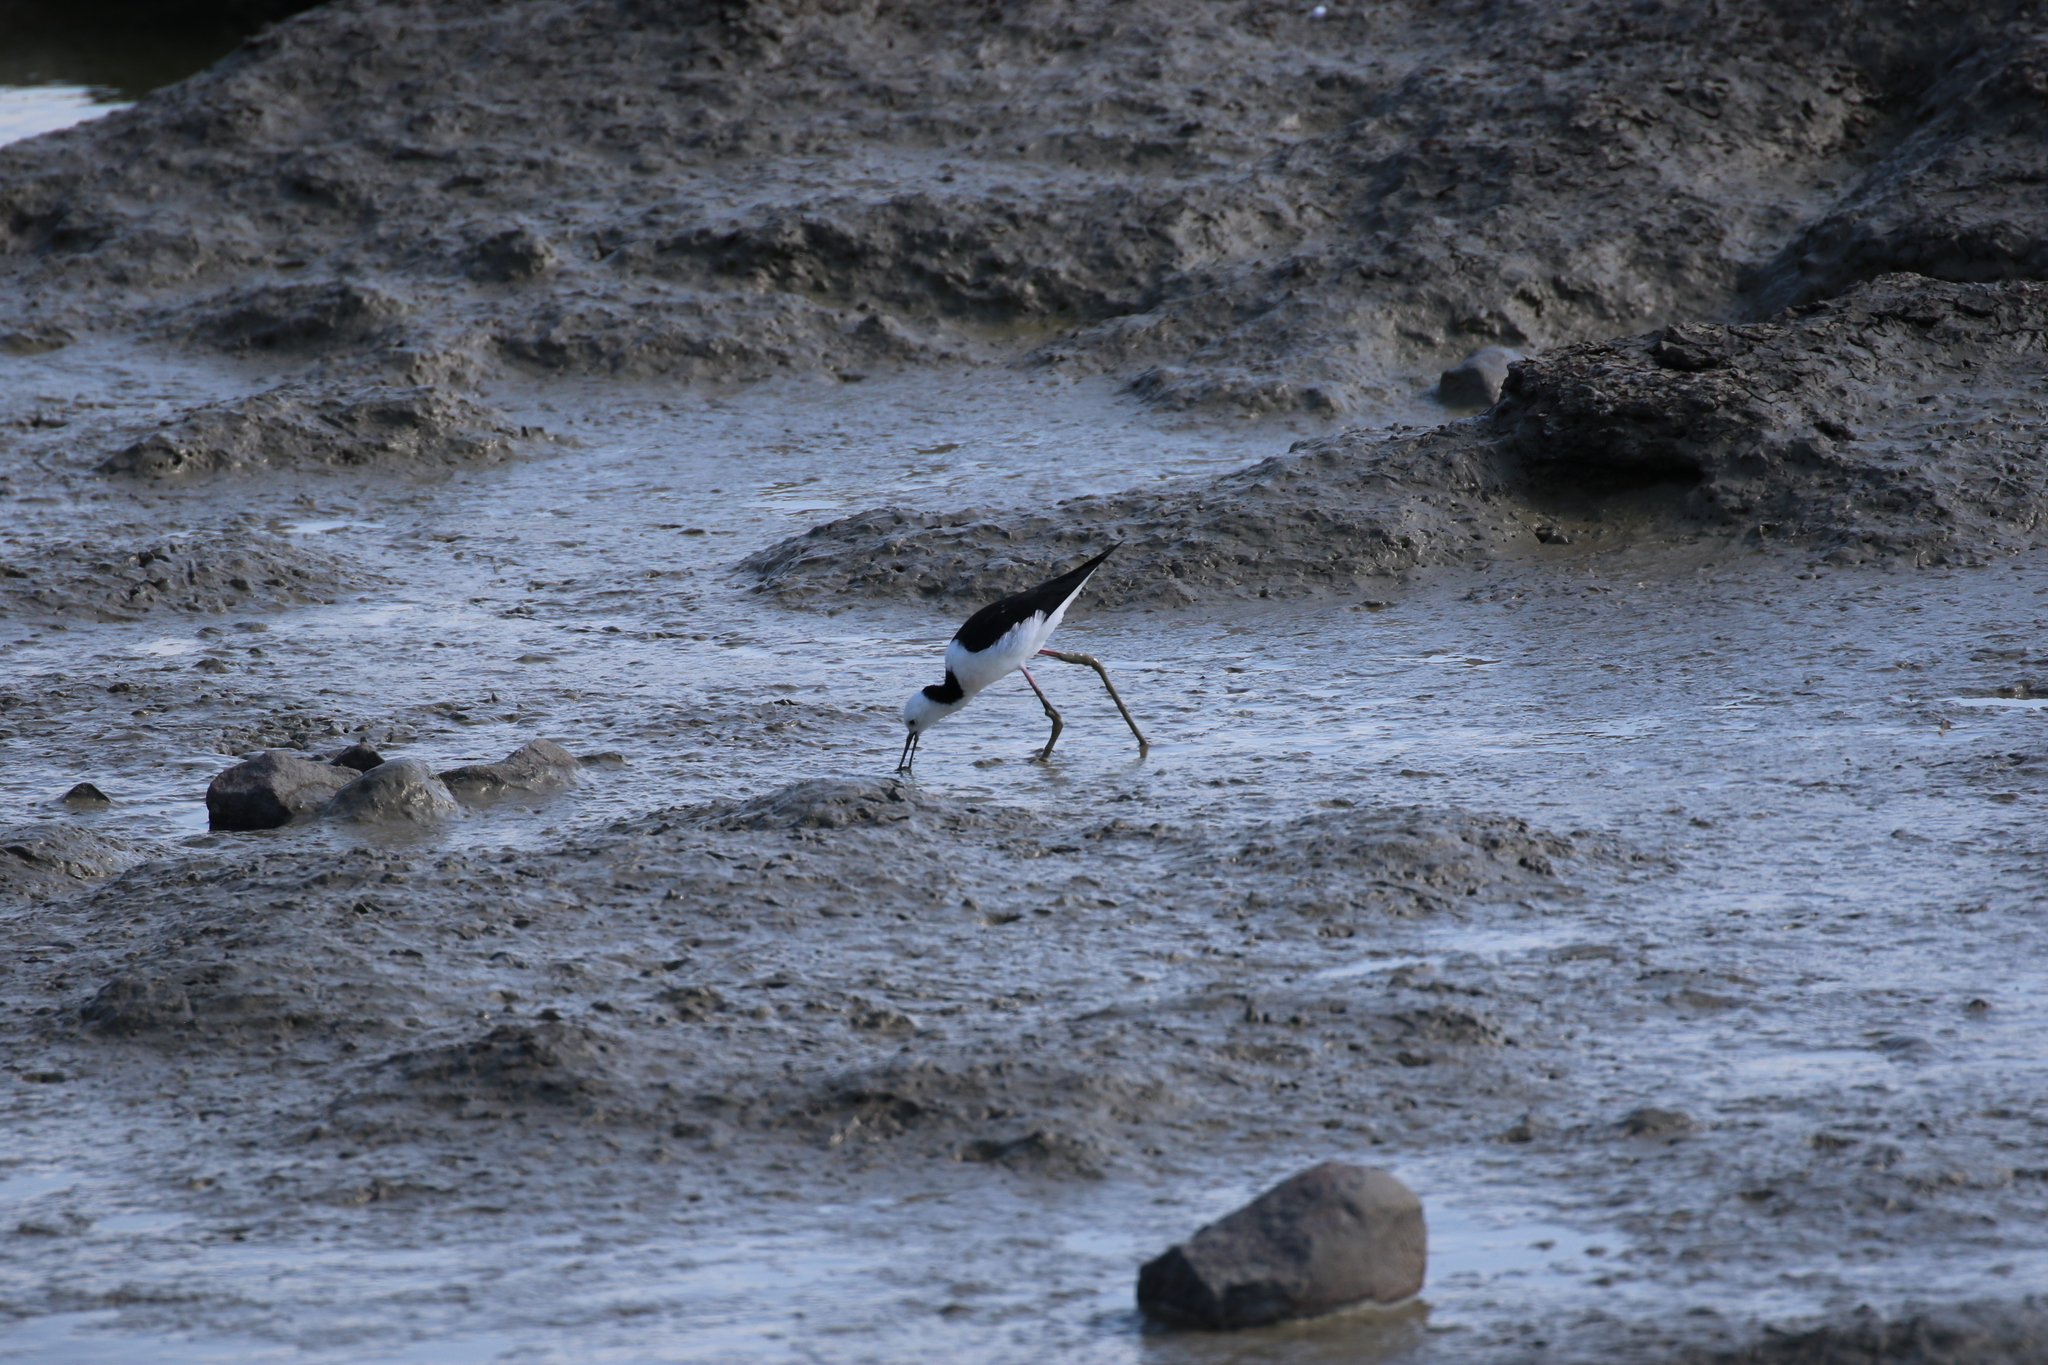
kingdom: Animalia
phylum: Chordata
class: Aves
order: Charadriiformes
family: Recurvirostridae
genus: Himantopus
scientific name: Himantopus leucocephalus
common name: White-headed stilt
